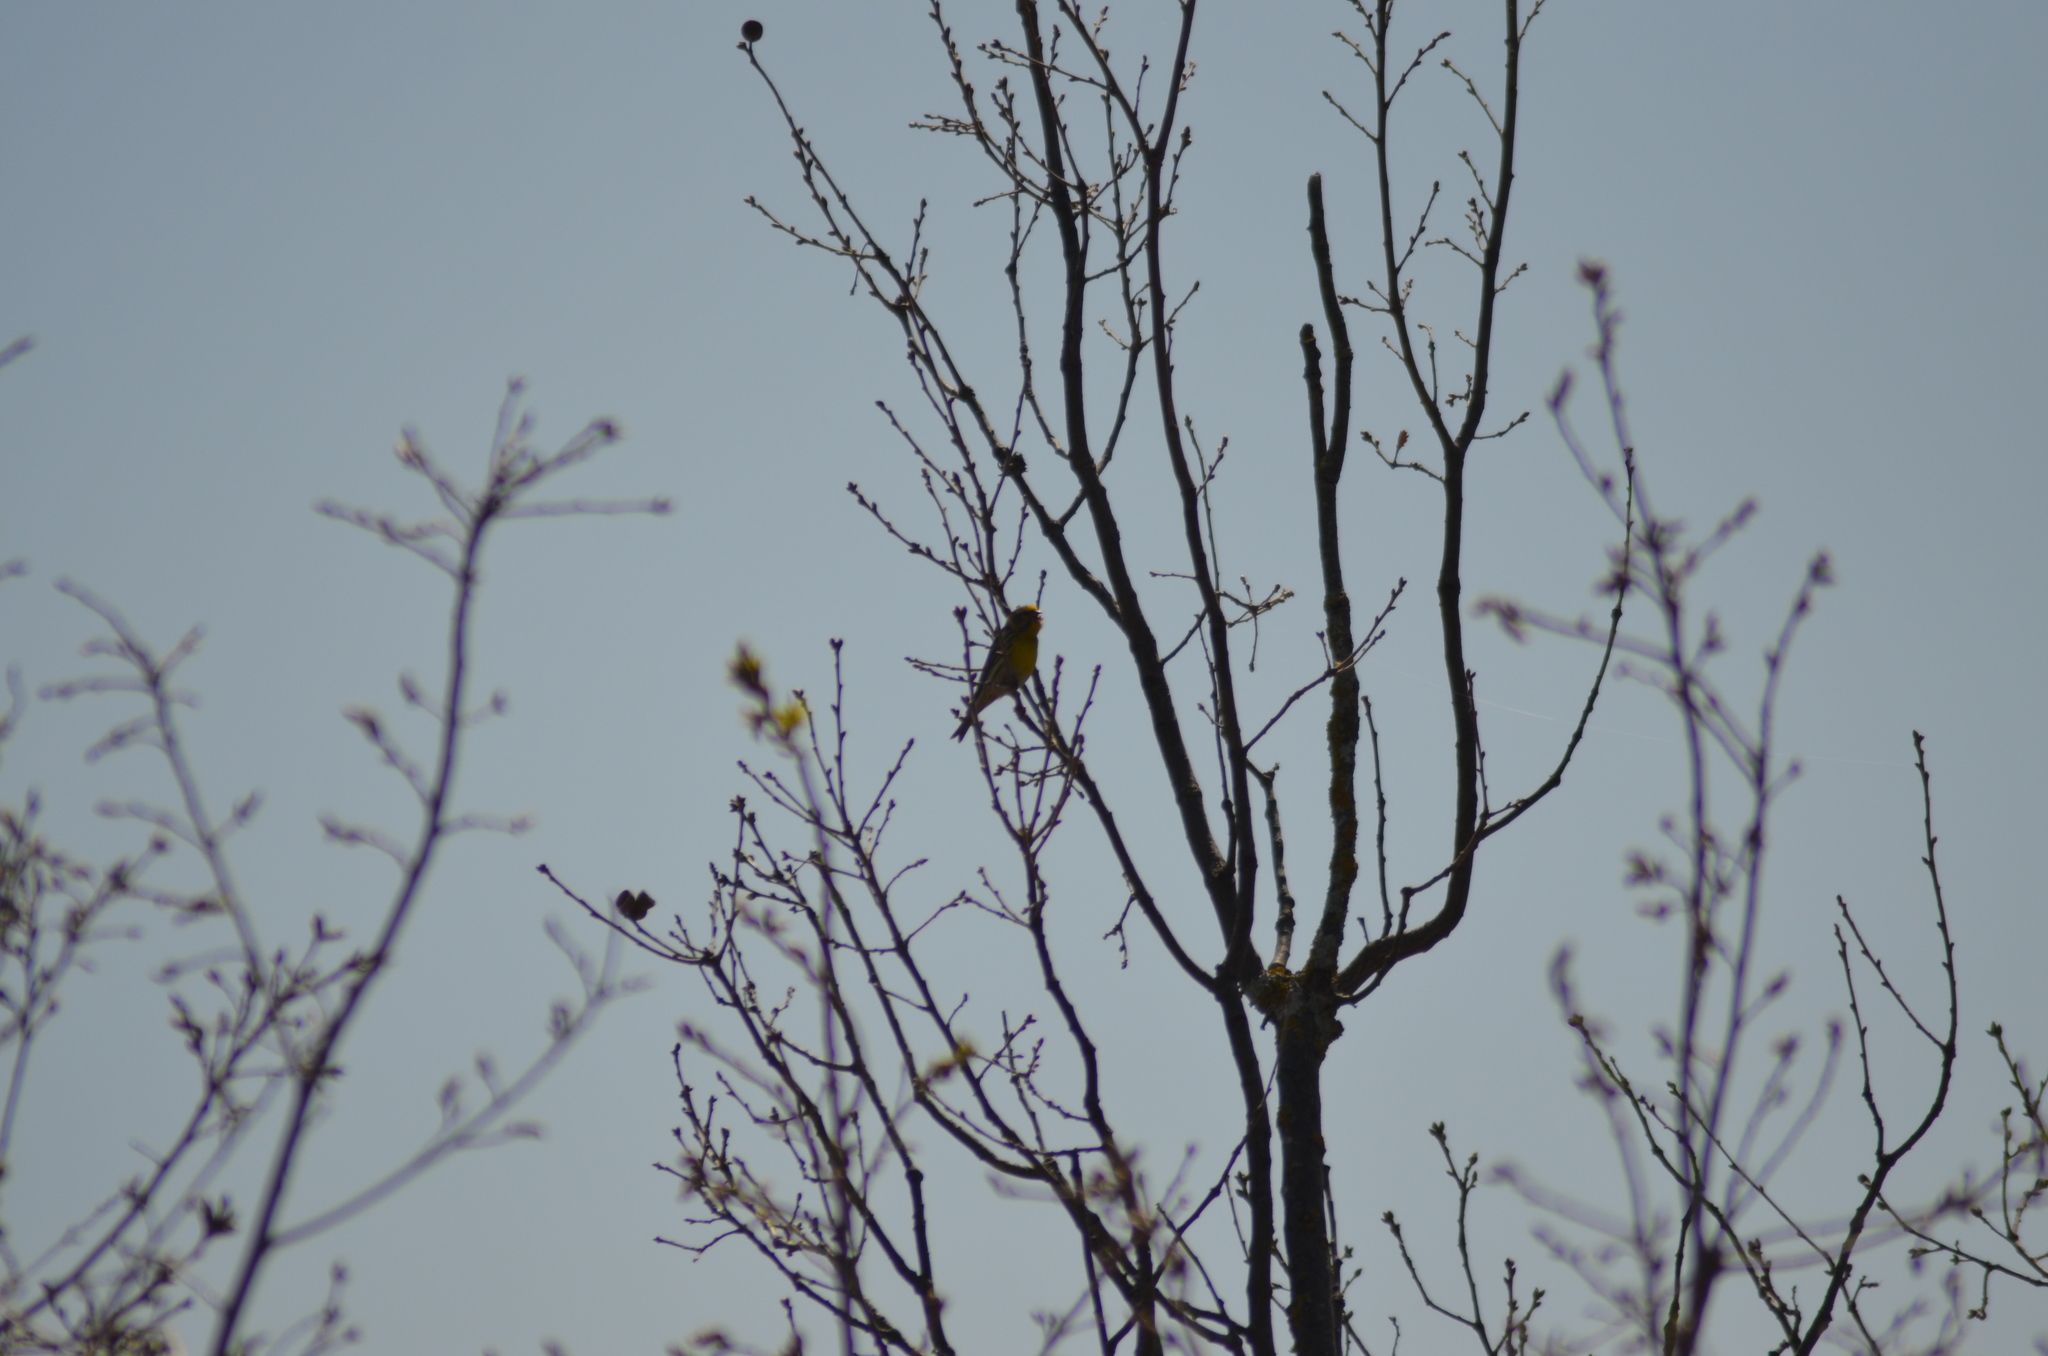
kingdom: Animalia
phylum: Chordata
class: Aves
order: Passeriformes
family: Fringillidae
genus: Serinus
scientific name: Serinus serinus
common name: European serin
